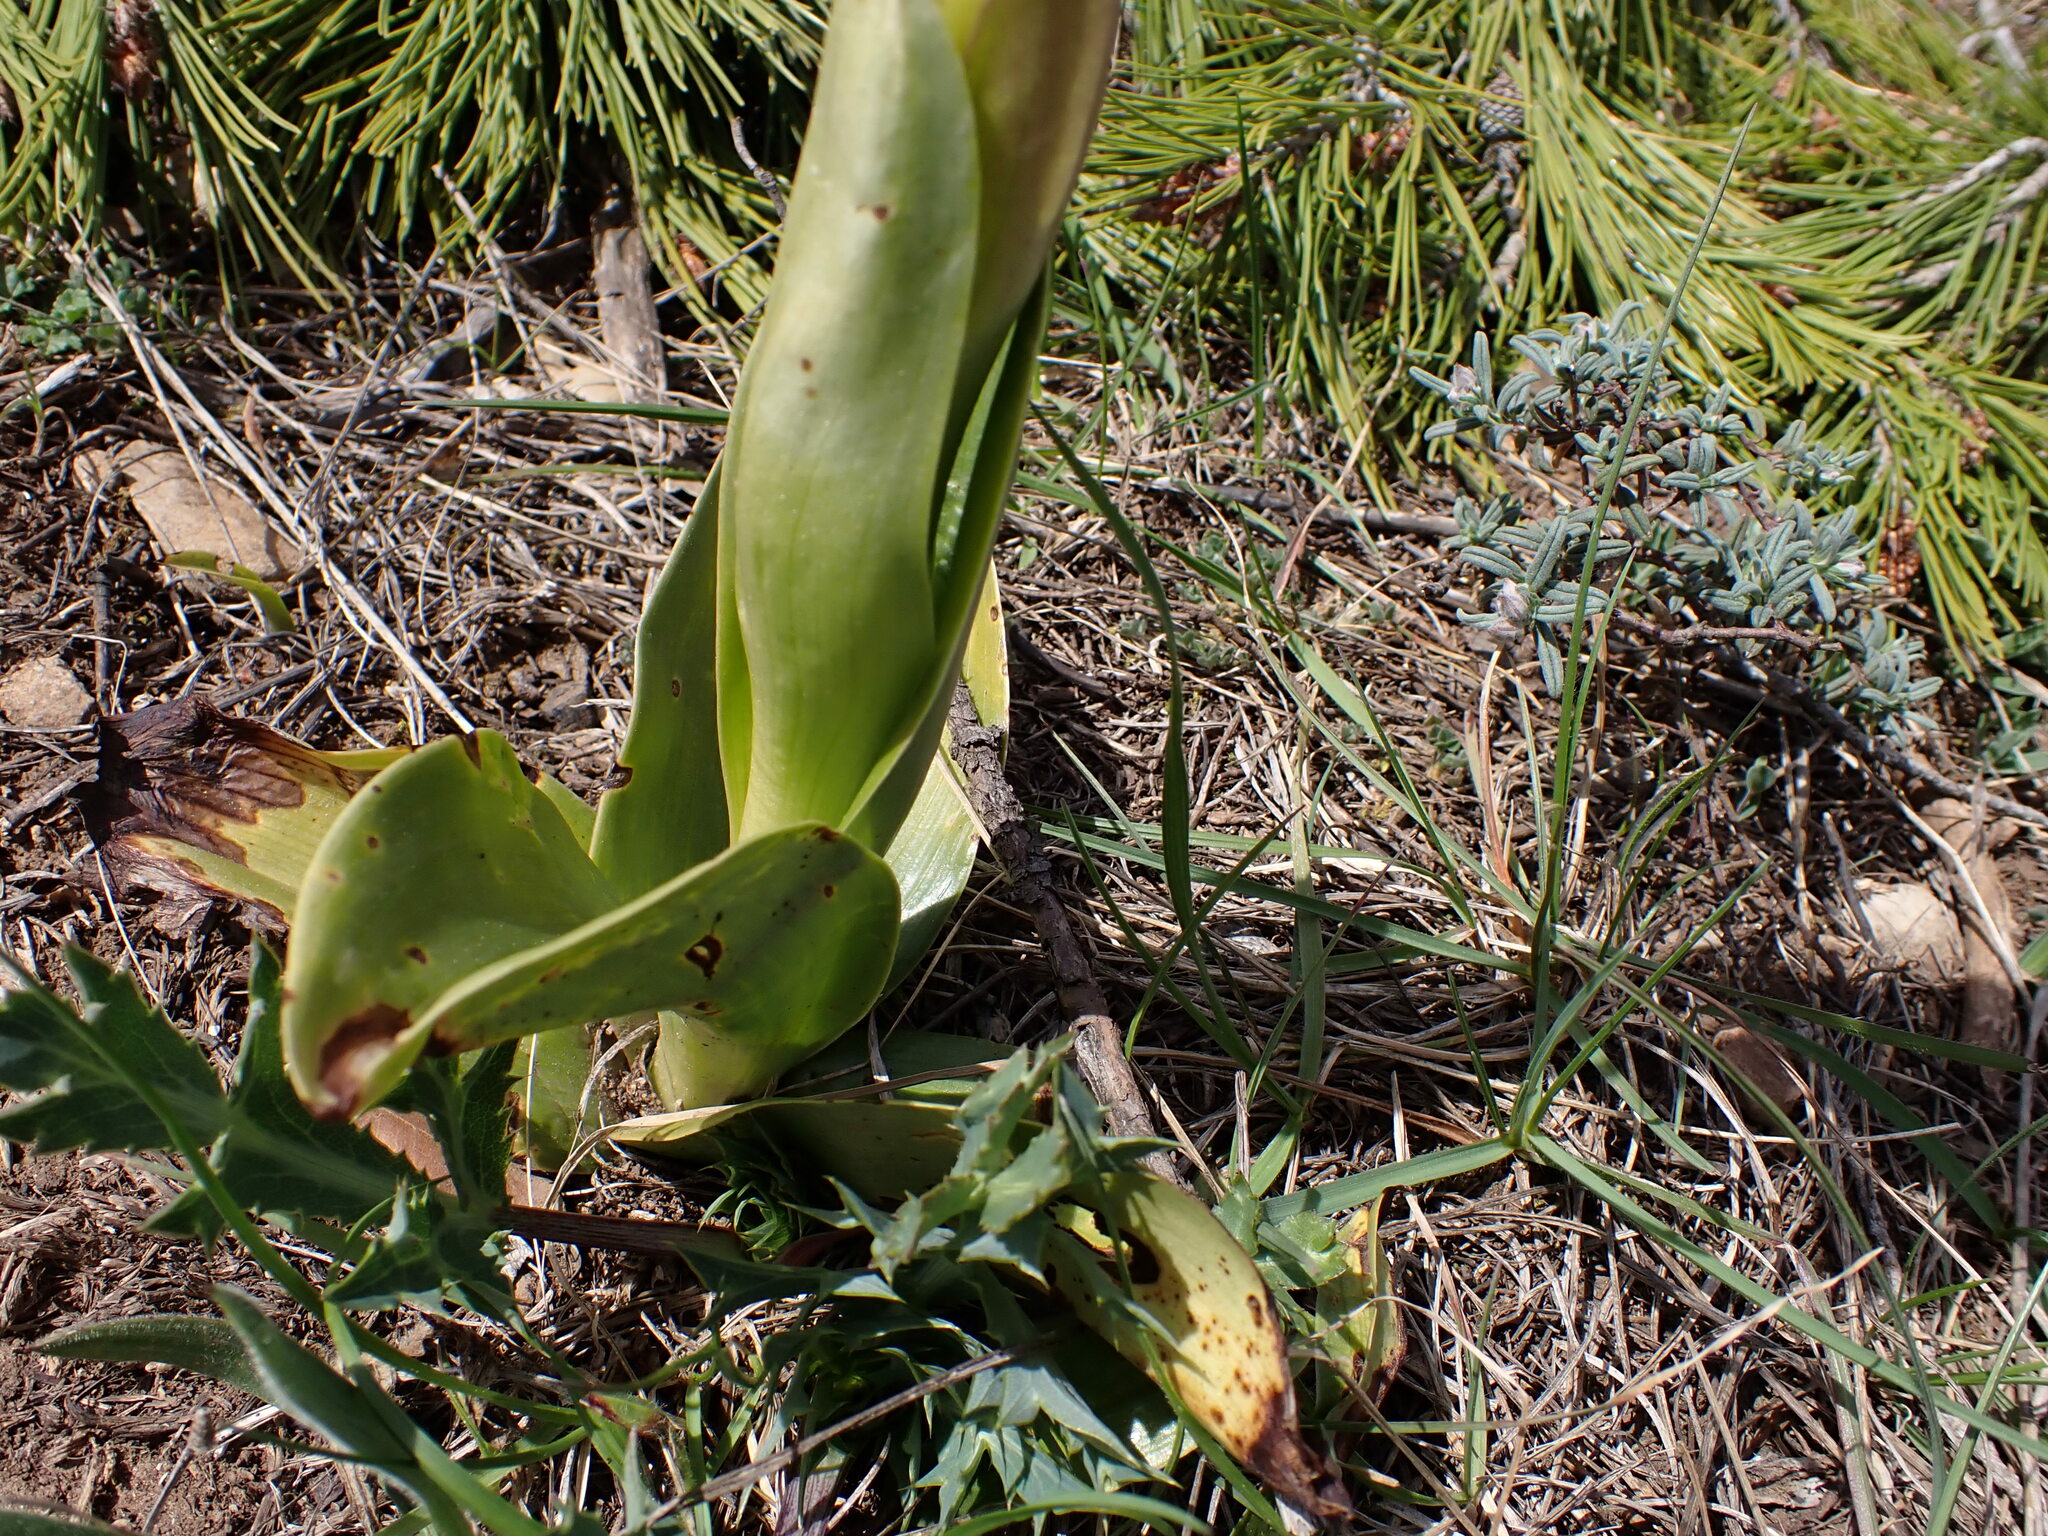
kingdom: Plantae
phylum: Tracheophyta
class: Liliopsida
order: Asparagales
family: Orchidaceae
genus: Himantoglossum
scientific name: Himantoglossum robertianum
